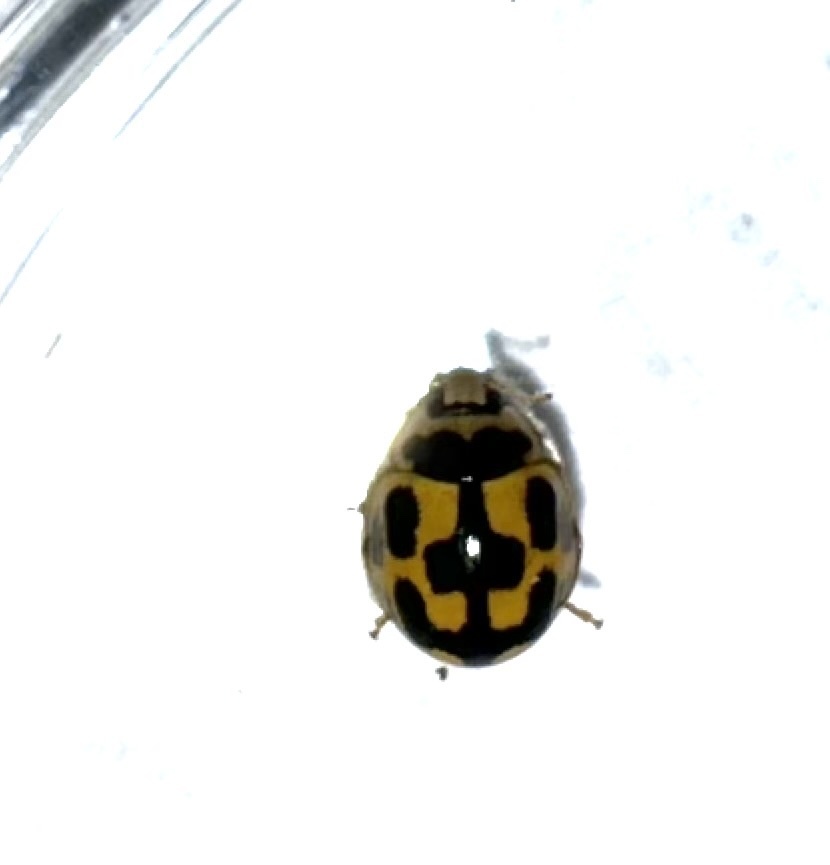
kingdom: Animalia
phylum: Arthropoda
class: Insecta
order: Coleoptera
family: Coccinellidae
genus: Propylaea
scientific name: Propylaea quatuordecimpunctata
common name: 14-spotted ladybird beetle
